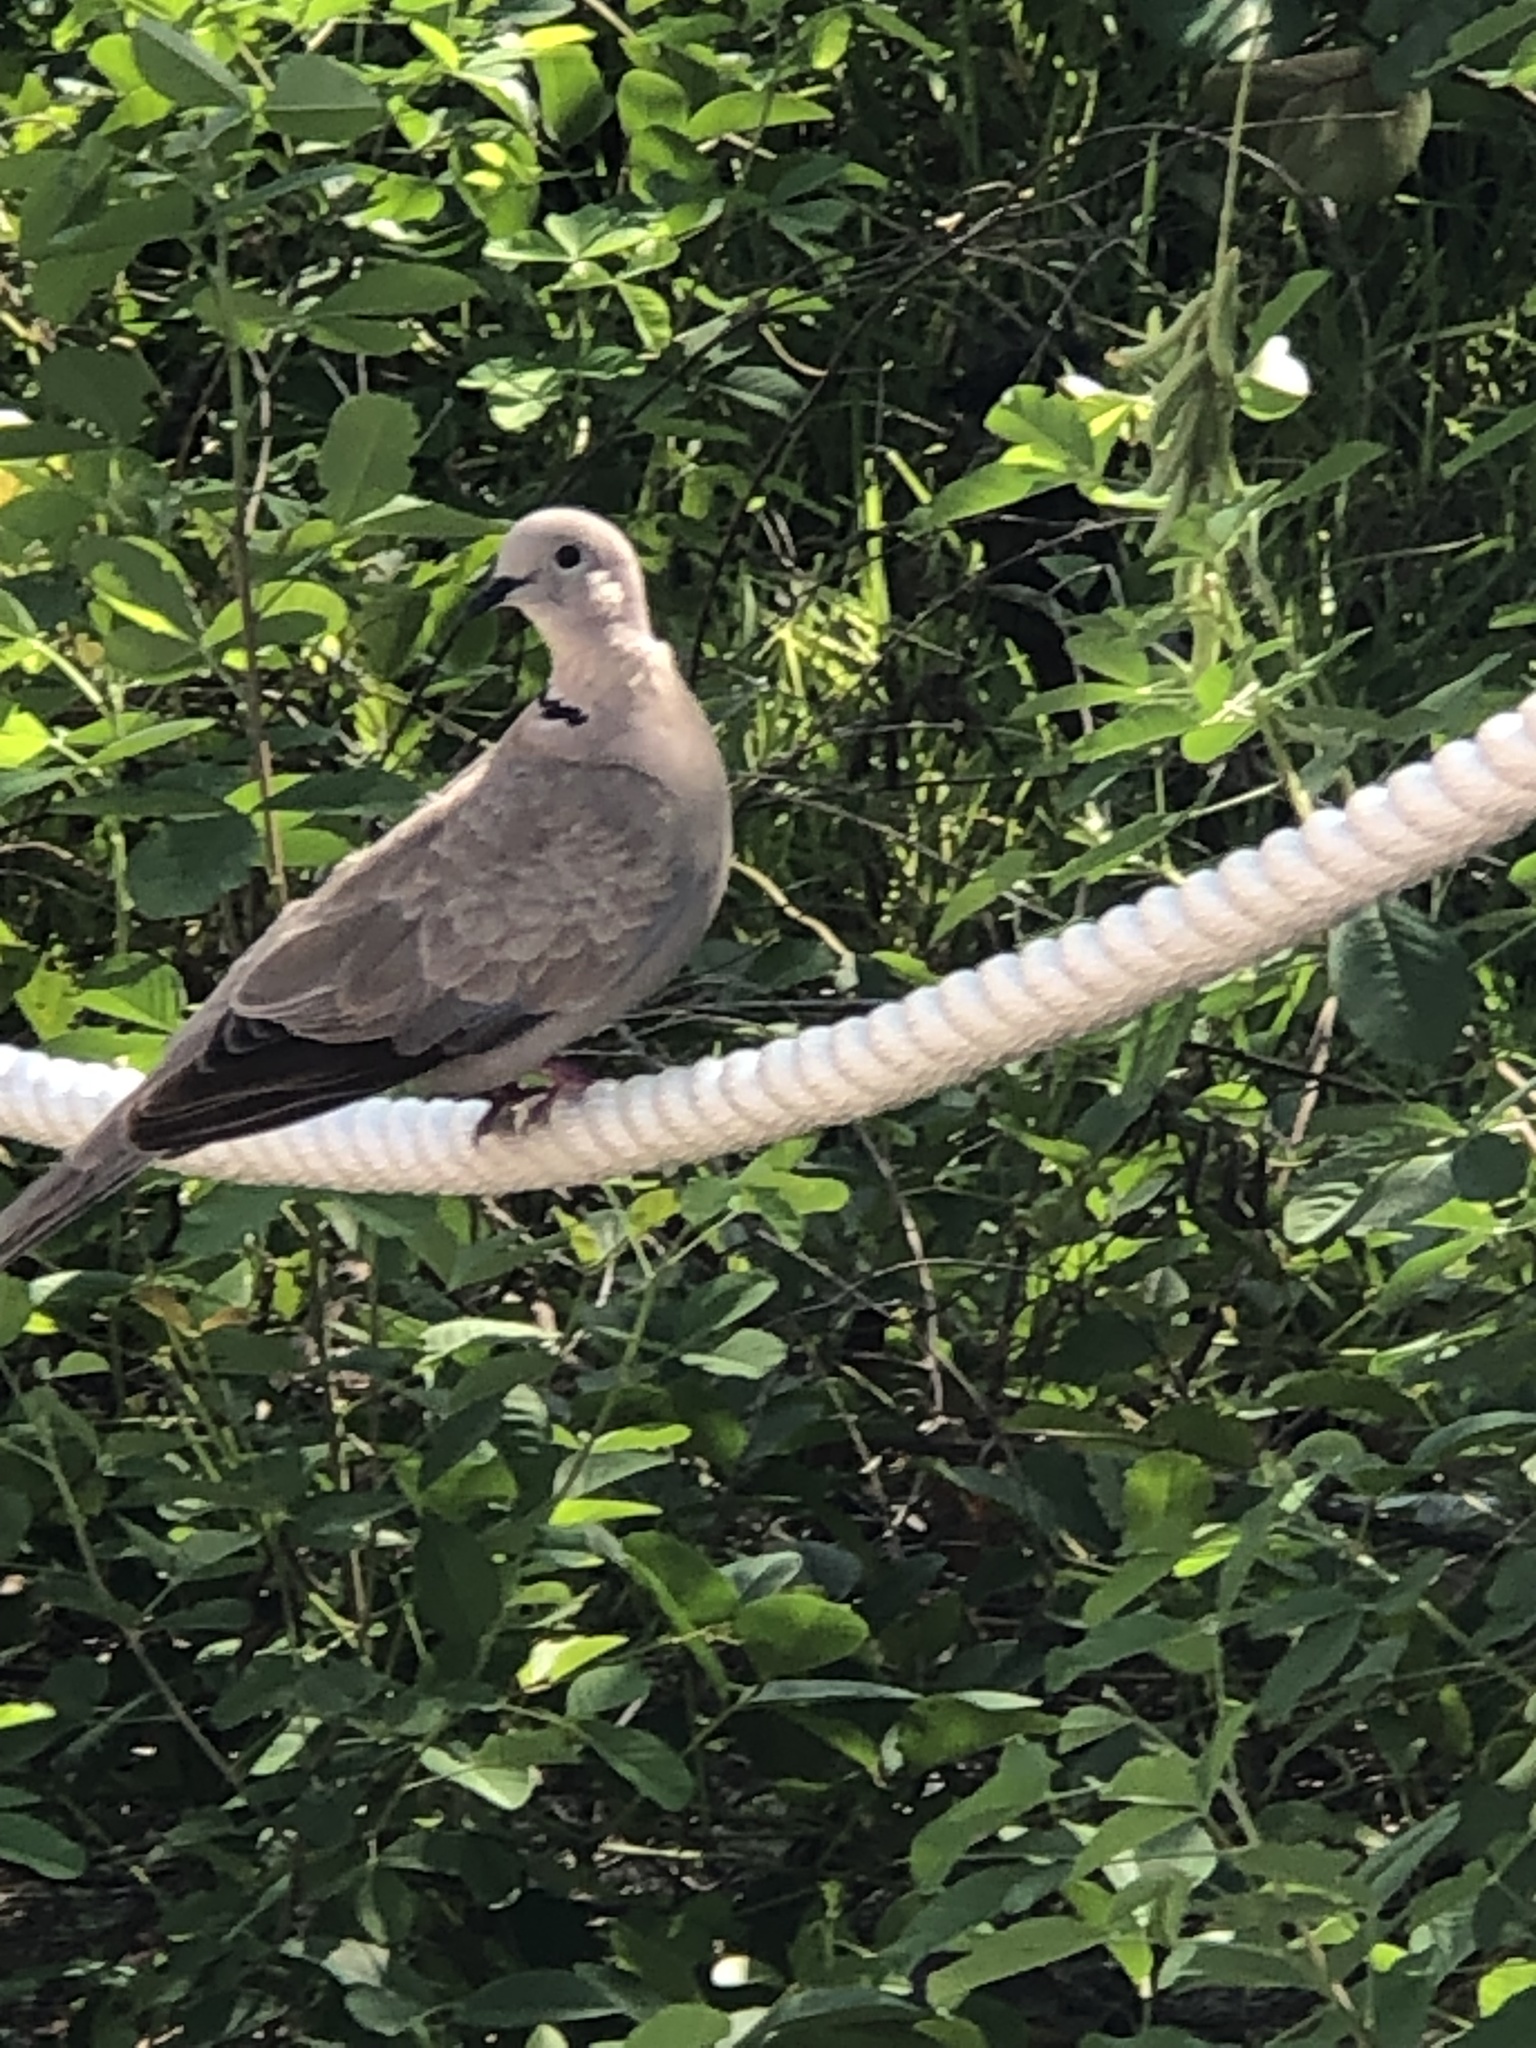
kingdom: Animalia
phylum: Chordata
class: Aves
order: Columbiformes
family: Columbidae
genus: Streptopelia
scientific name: Streptopelia decaocto
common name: Eurasian collared dove
